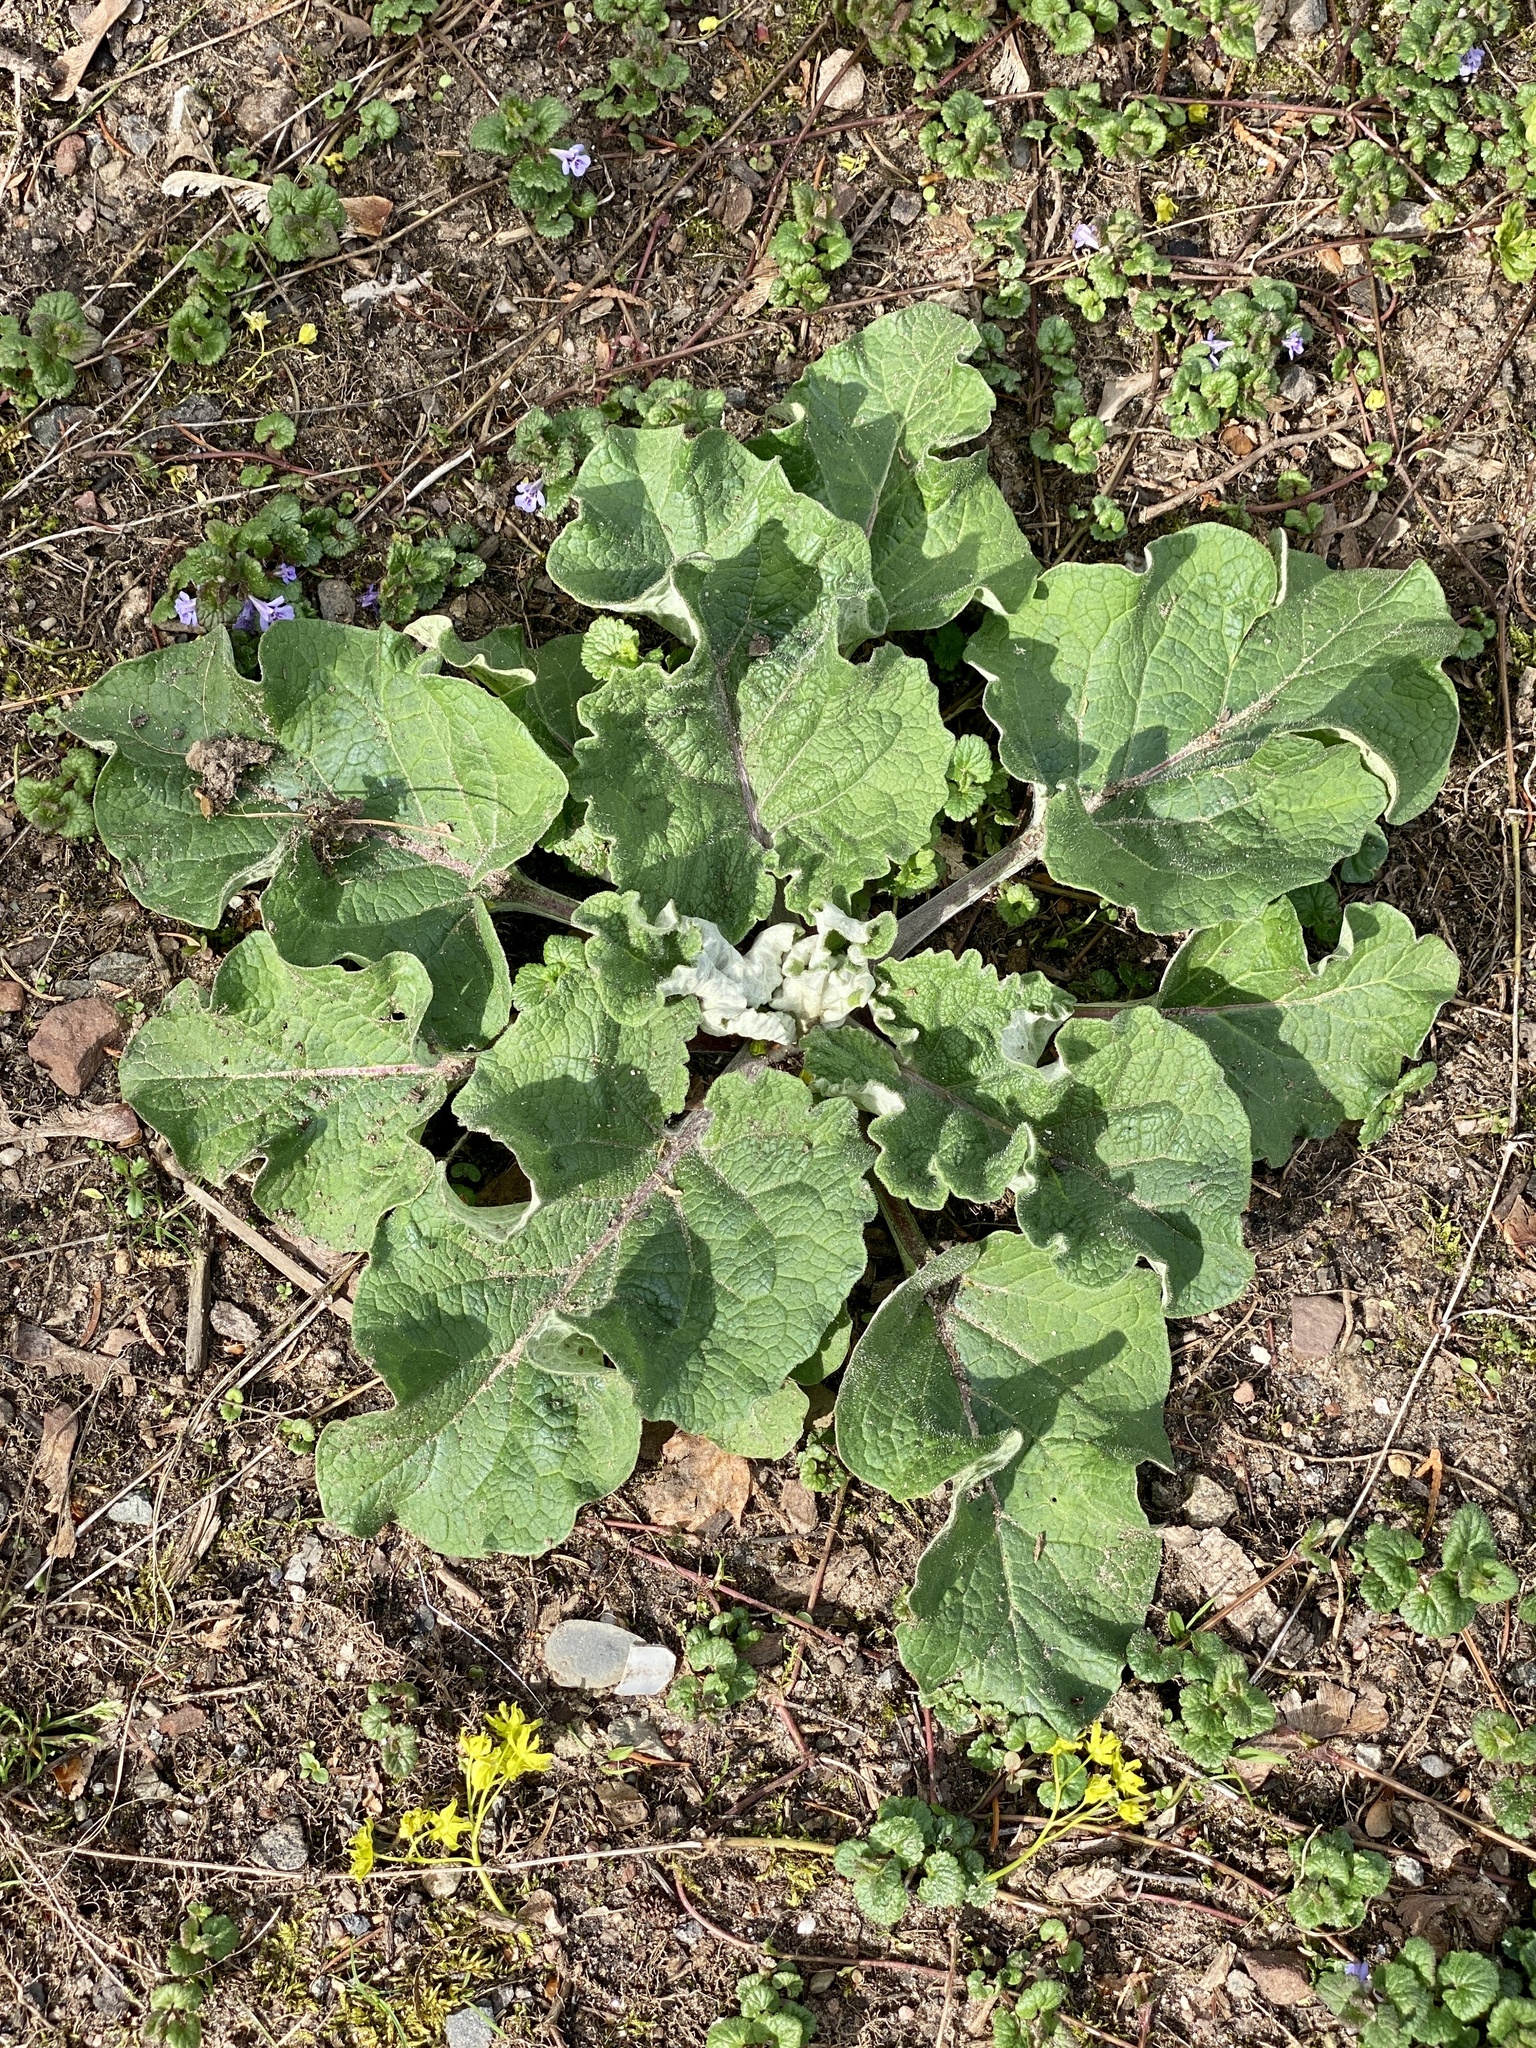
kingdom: Plantae
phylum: Tracheophyta
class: Magnoliopsida
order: Asterales
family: Asteraceae
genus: Arctium
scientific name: Arctium minus
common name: Lesser burdock
